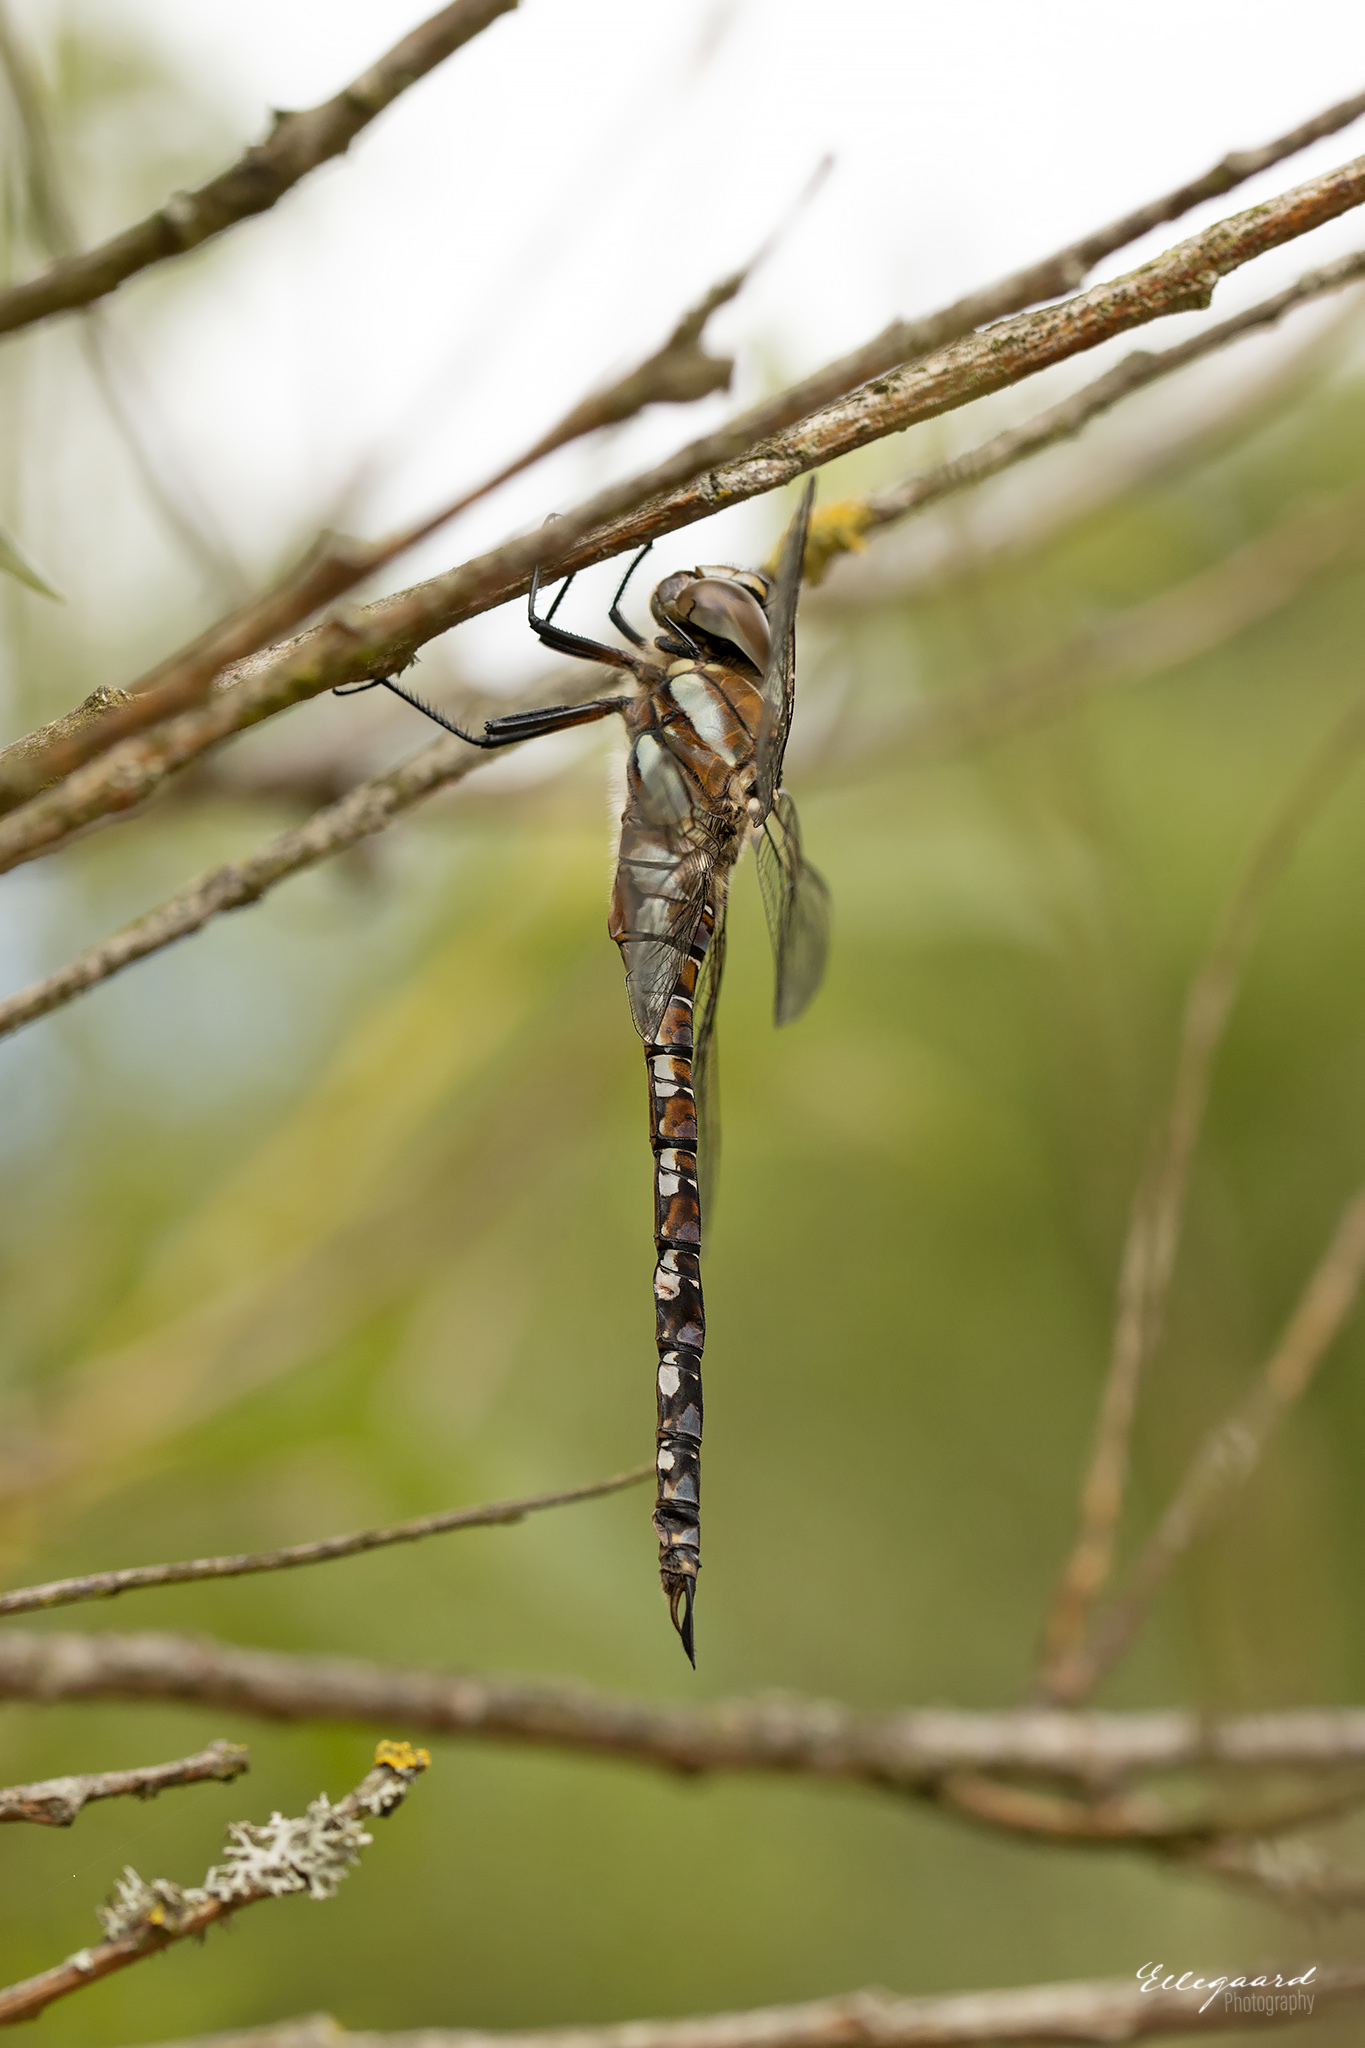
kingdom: Animalia
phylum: Arthropoda
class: Insecta
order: Odonata
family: Aeshnidae
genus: Aeshna
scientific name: Aeshna mixta
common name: Migrant hawker
